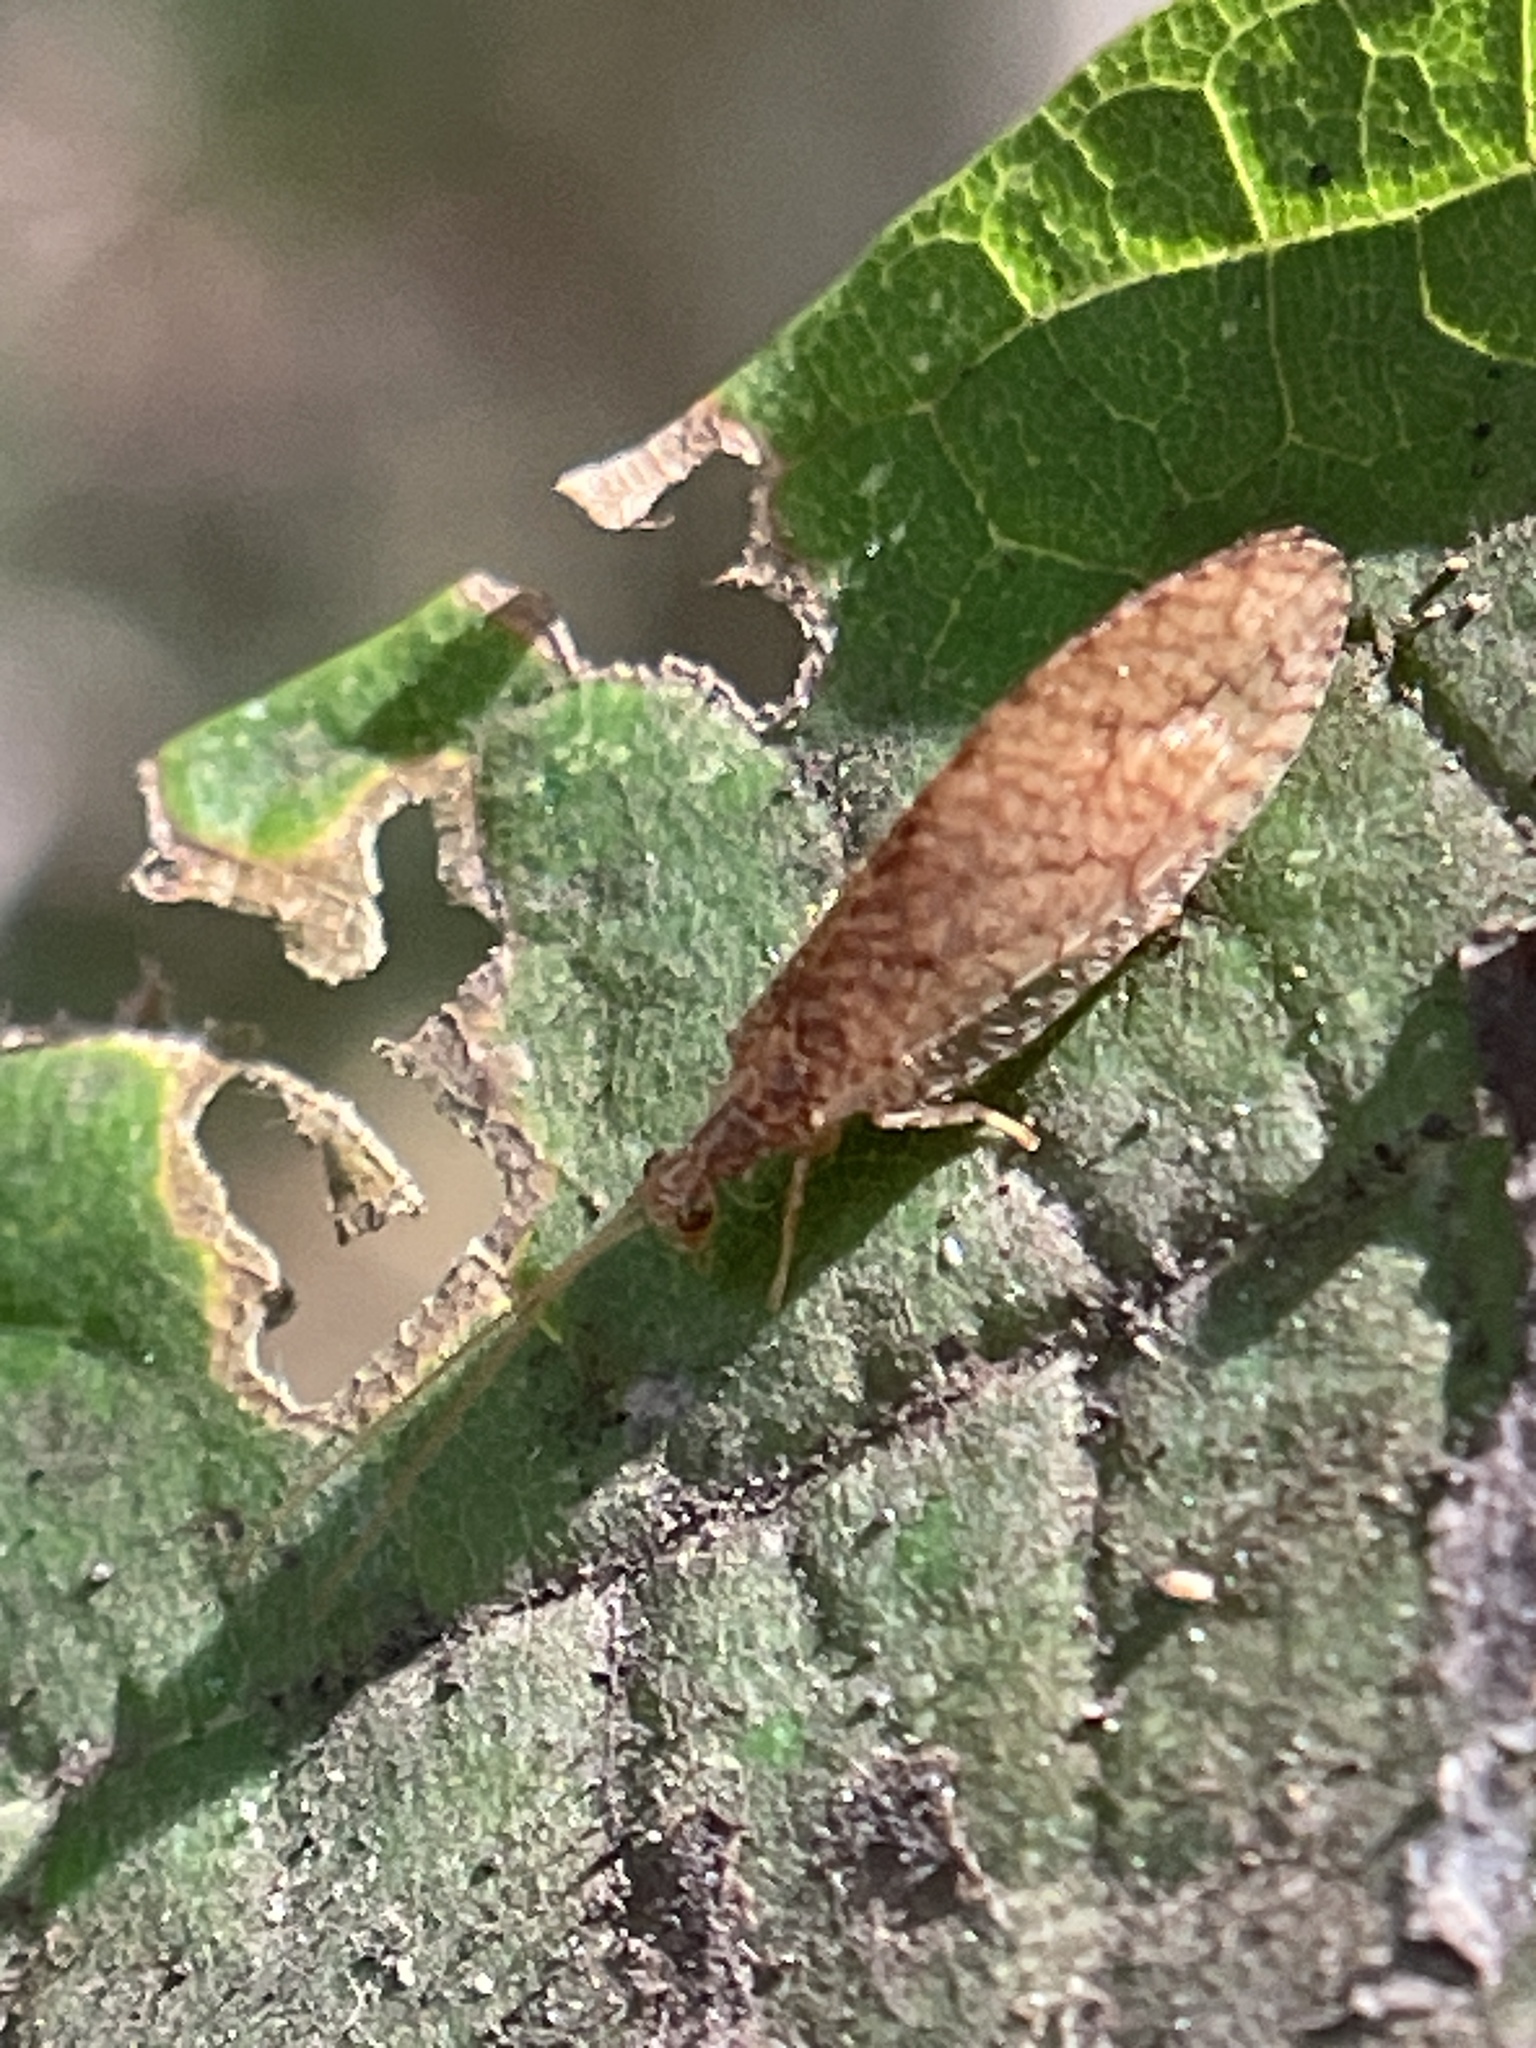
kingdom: Animalia
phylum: Arthropoda
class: Insecta
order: Neuroptera
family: Hemerobiidae
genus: Micromus
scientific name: Micromus posticus
